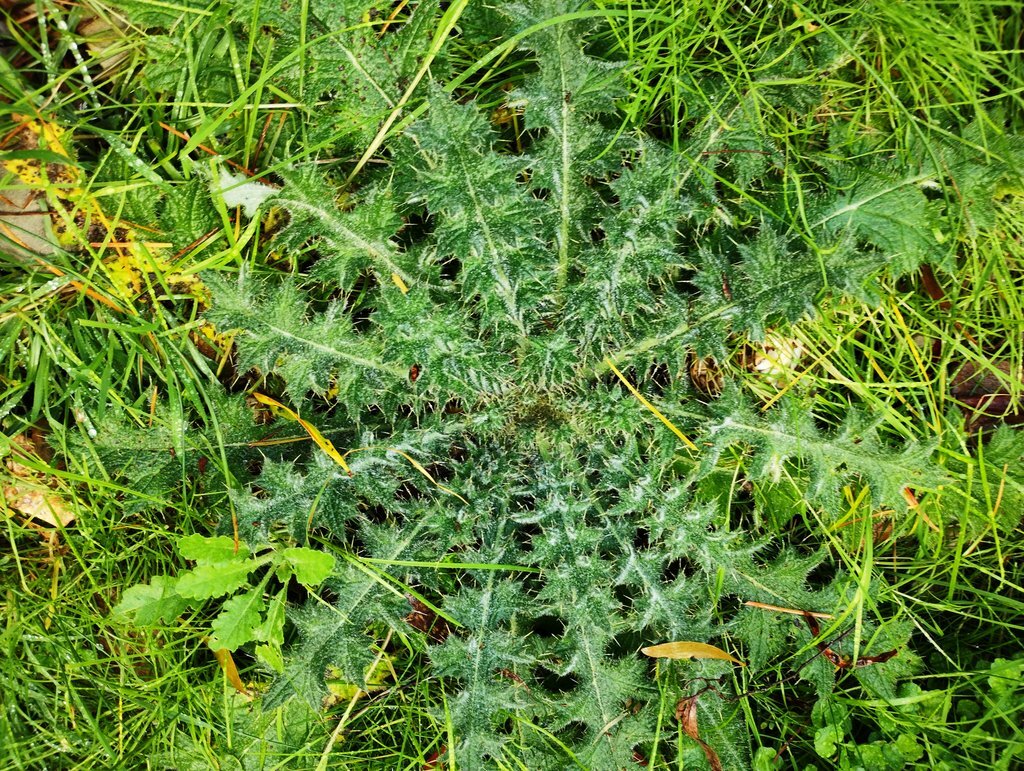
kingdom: Plantae
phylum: Tracheophyta
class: Magnoliopsida
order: Asterales
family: Asteraceae
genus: Cirsium
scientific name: Cirsium vulgare
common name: Bull thistle
